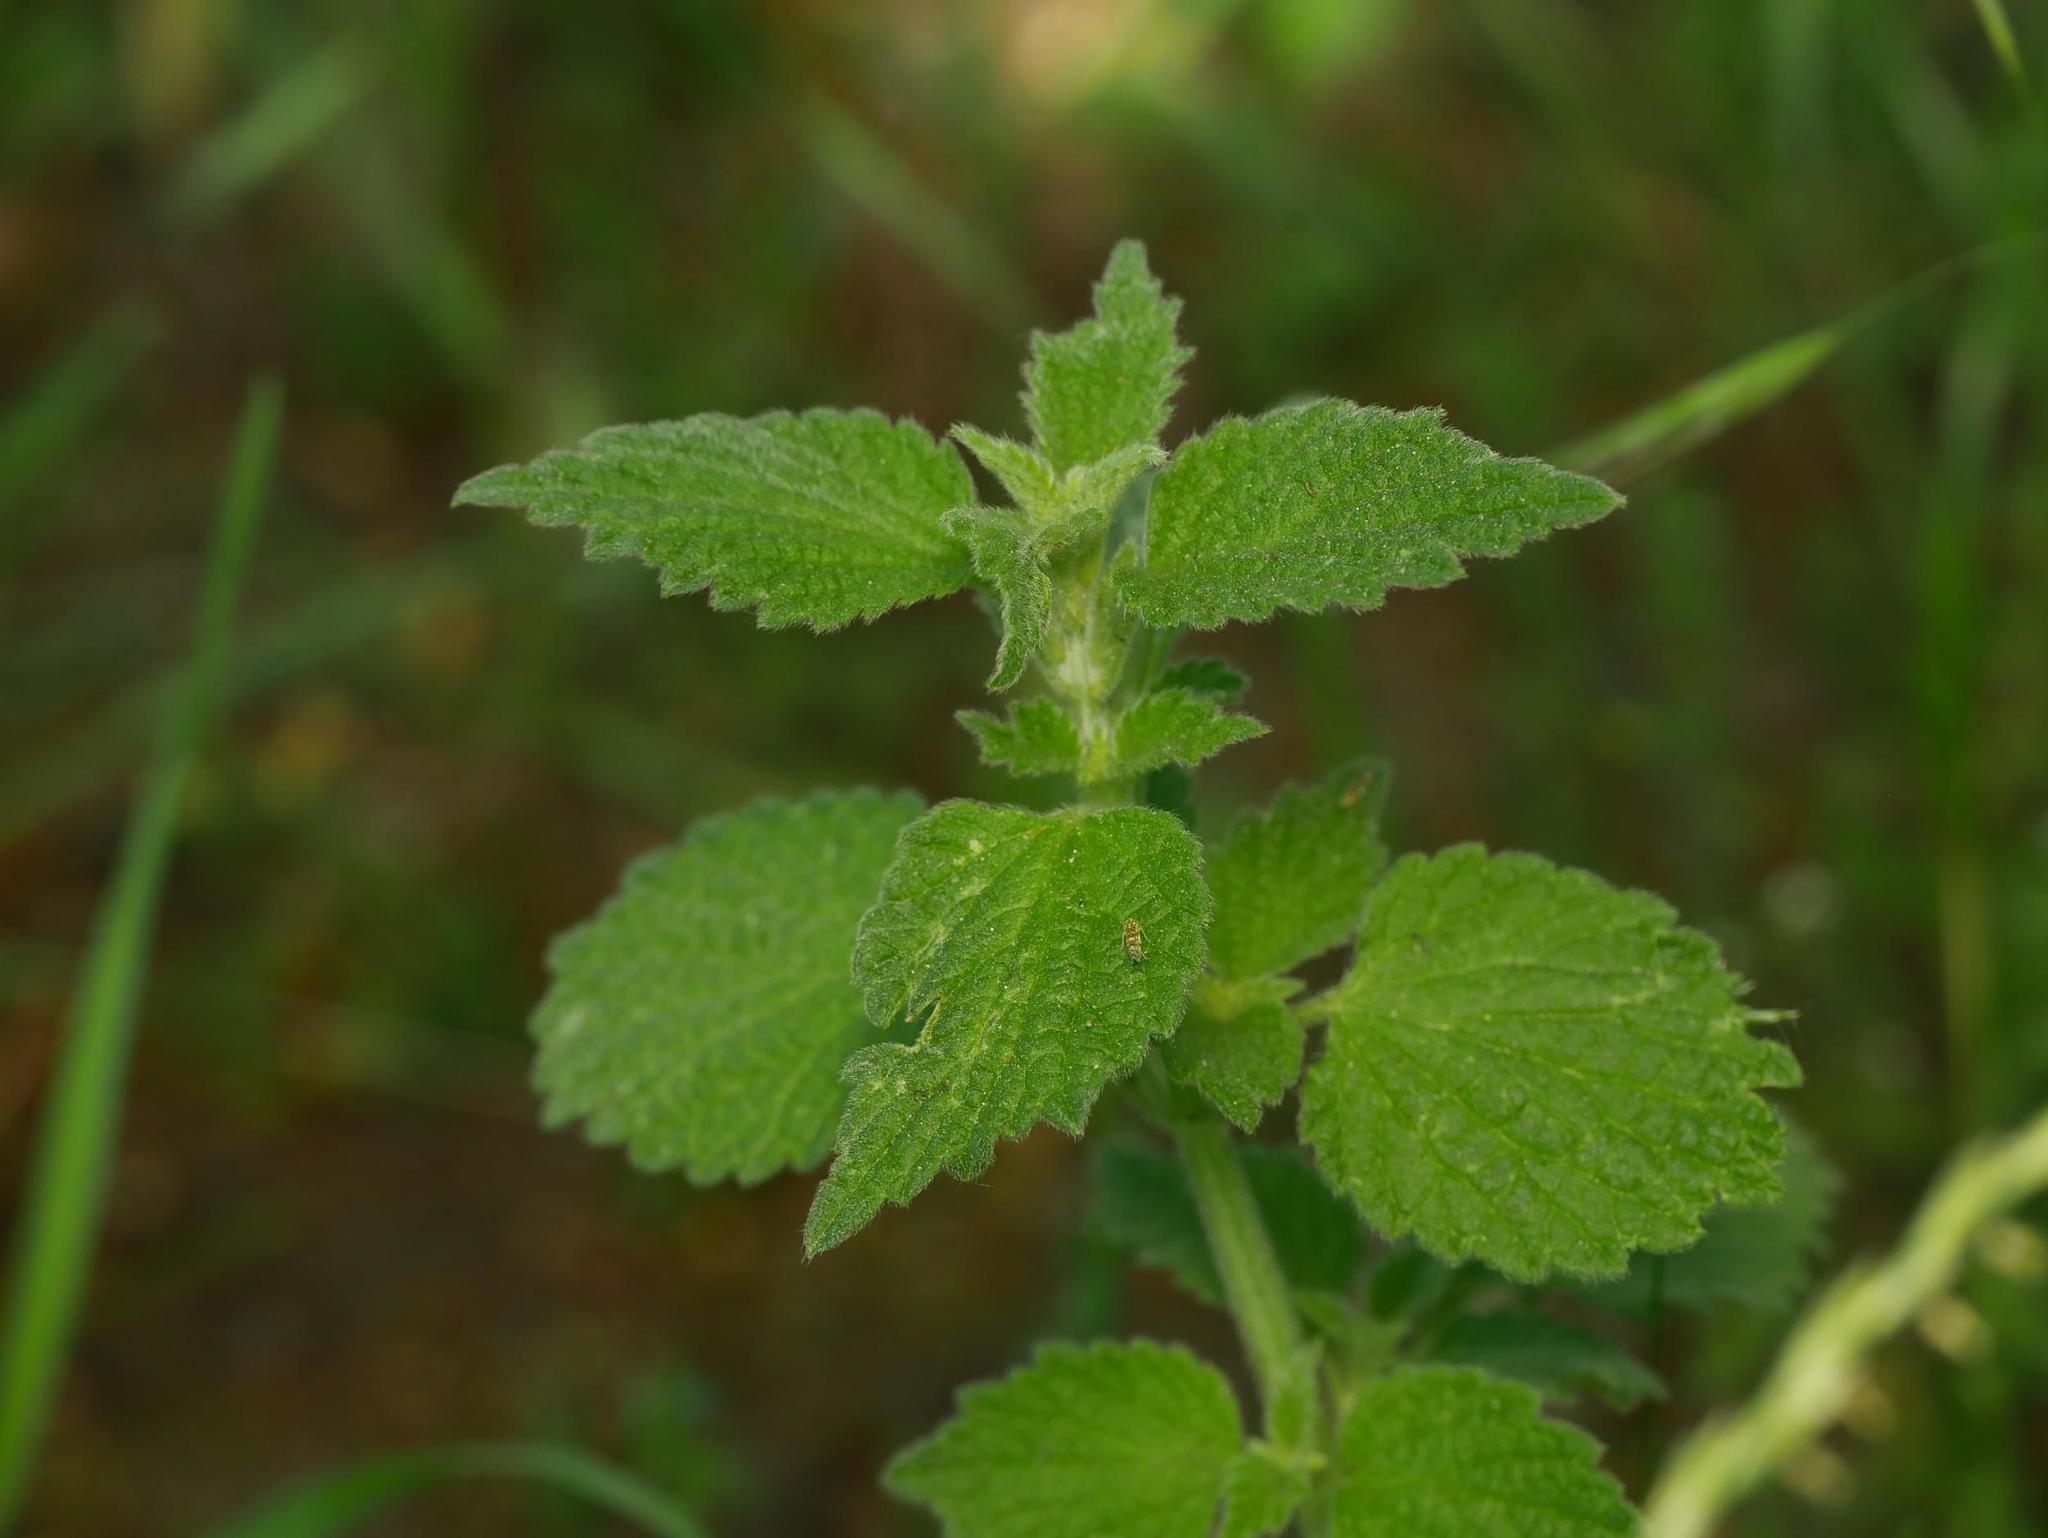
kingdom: Plantae
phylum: Tracheophyta
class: Magnoliopsida
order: Lamiales
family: Lamiaceae
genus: Ballota
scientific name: Ballota nigra
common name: Black horehound
